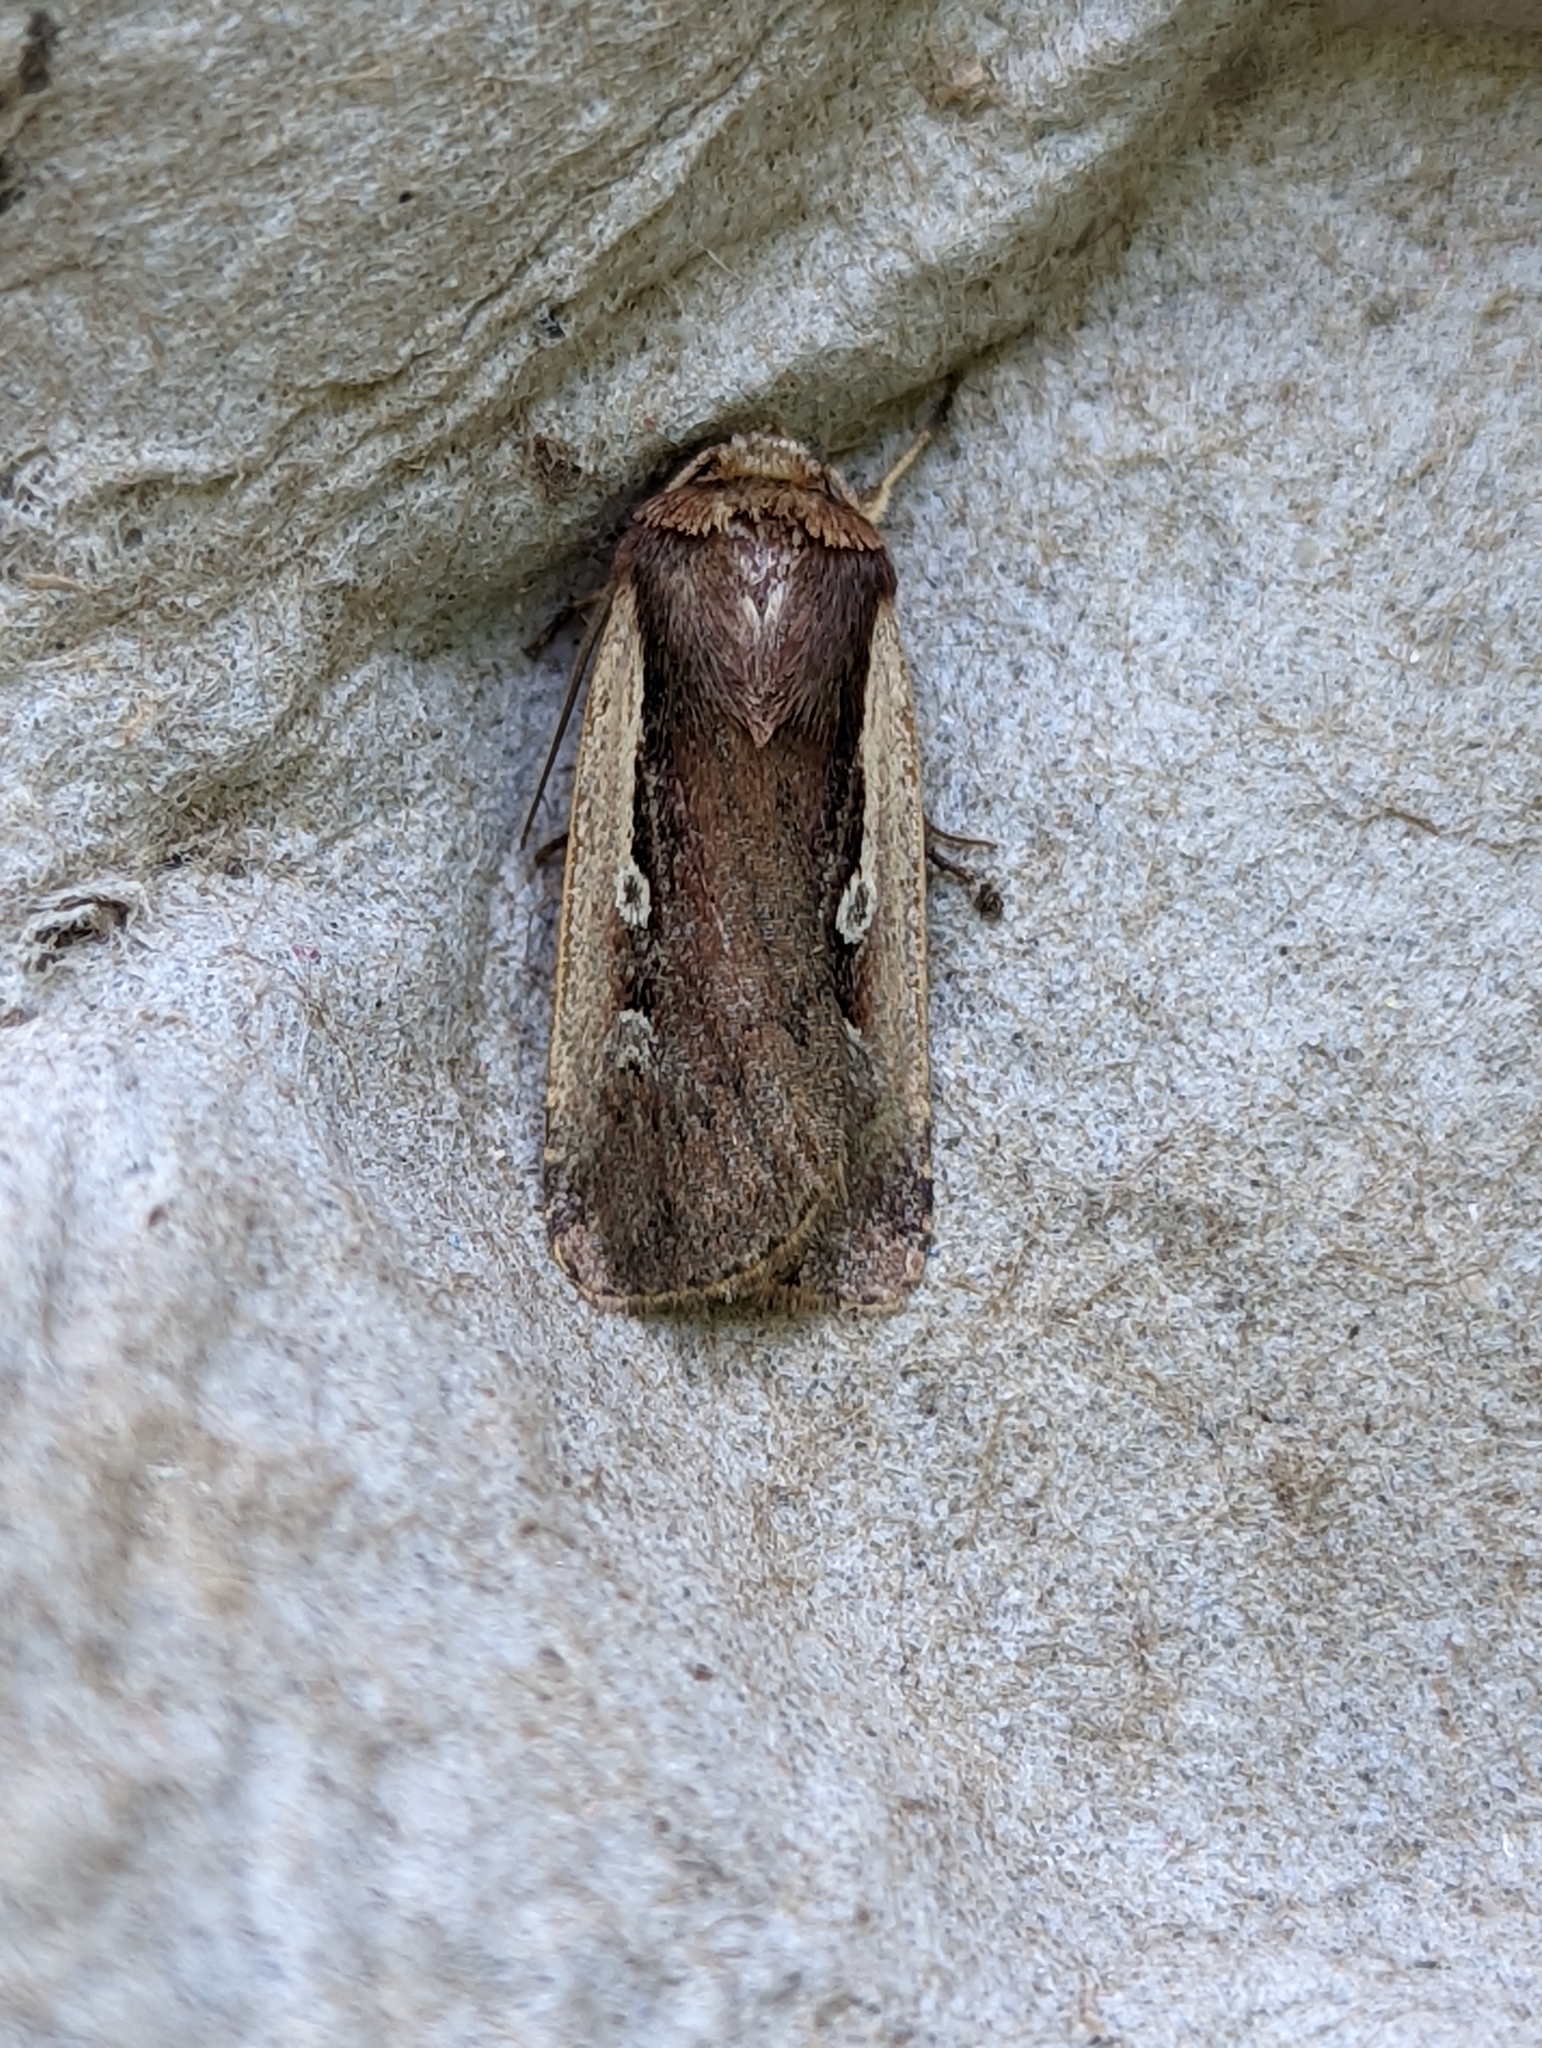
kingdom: Animalia
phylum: Arthropoda
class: Insecta
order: Lepidoptera
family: Noctuidae
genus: Ochropleura
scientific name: Ochropleura plecta
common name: Flame shoulder
